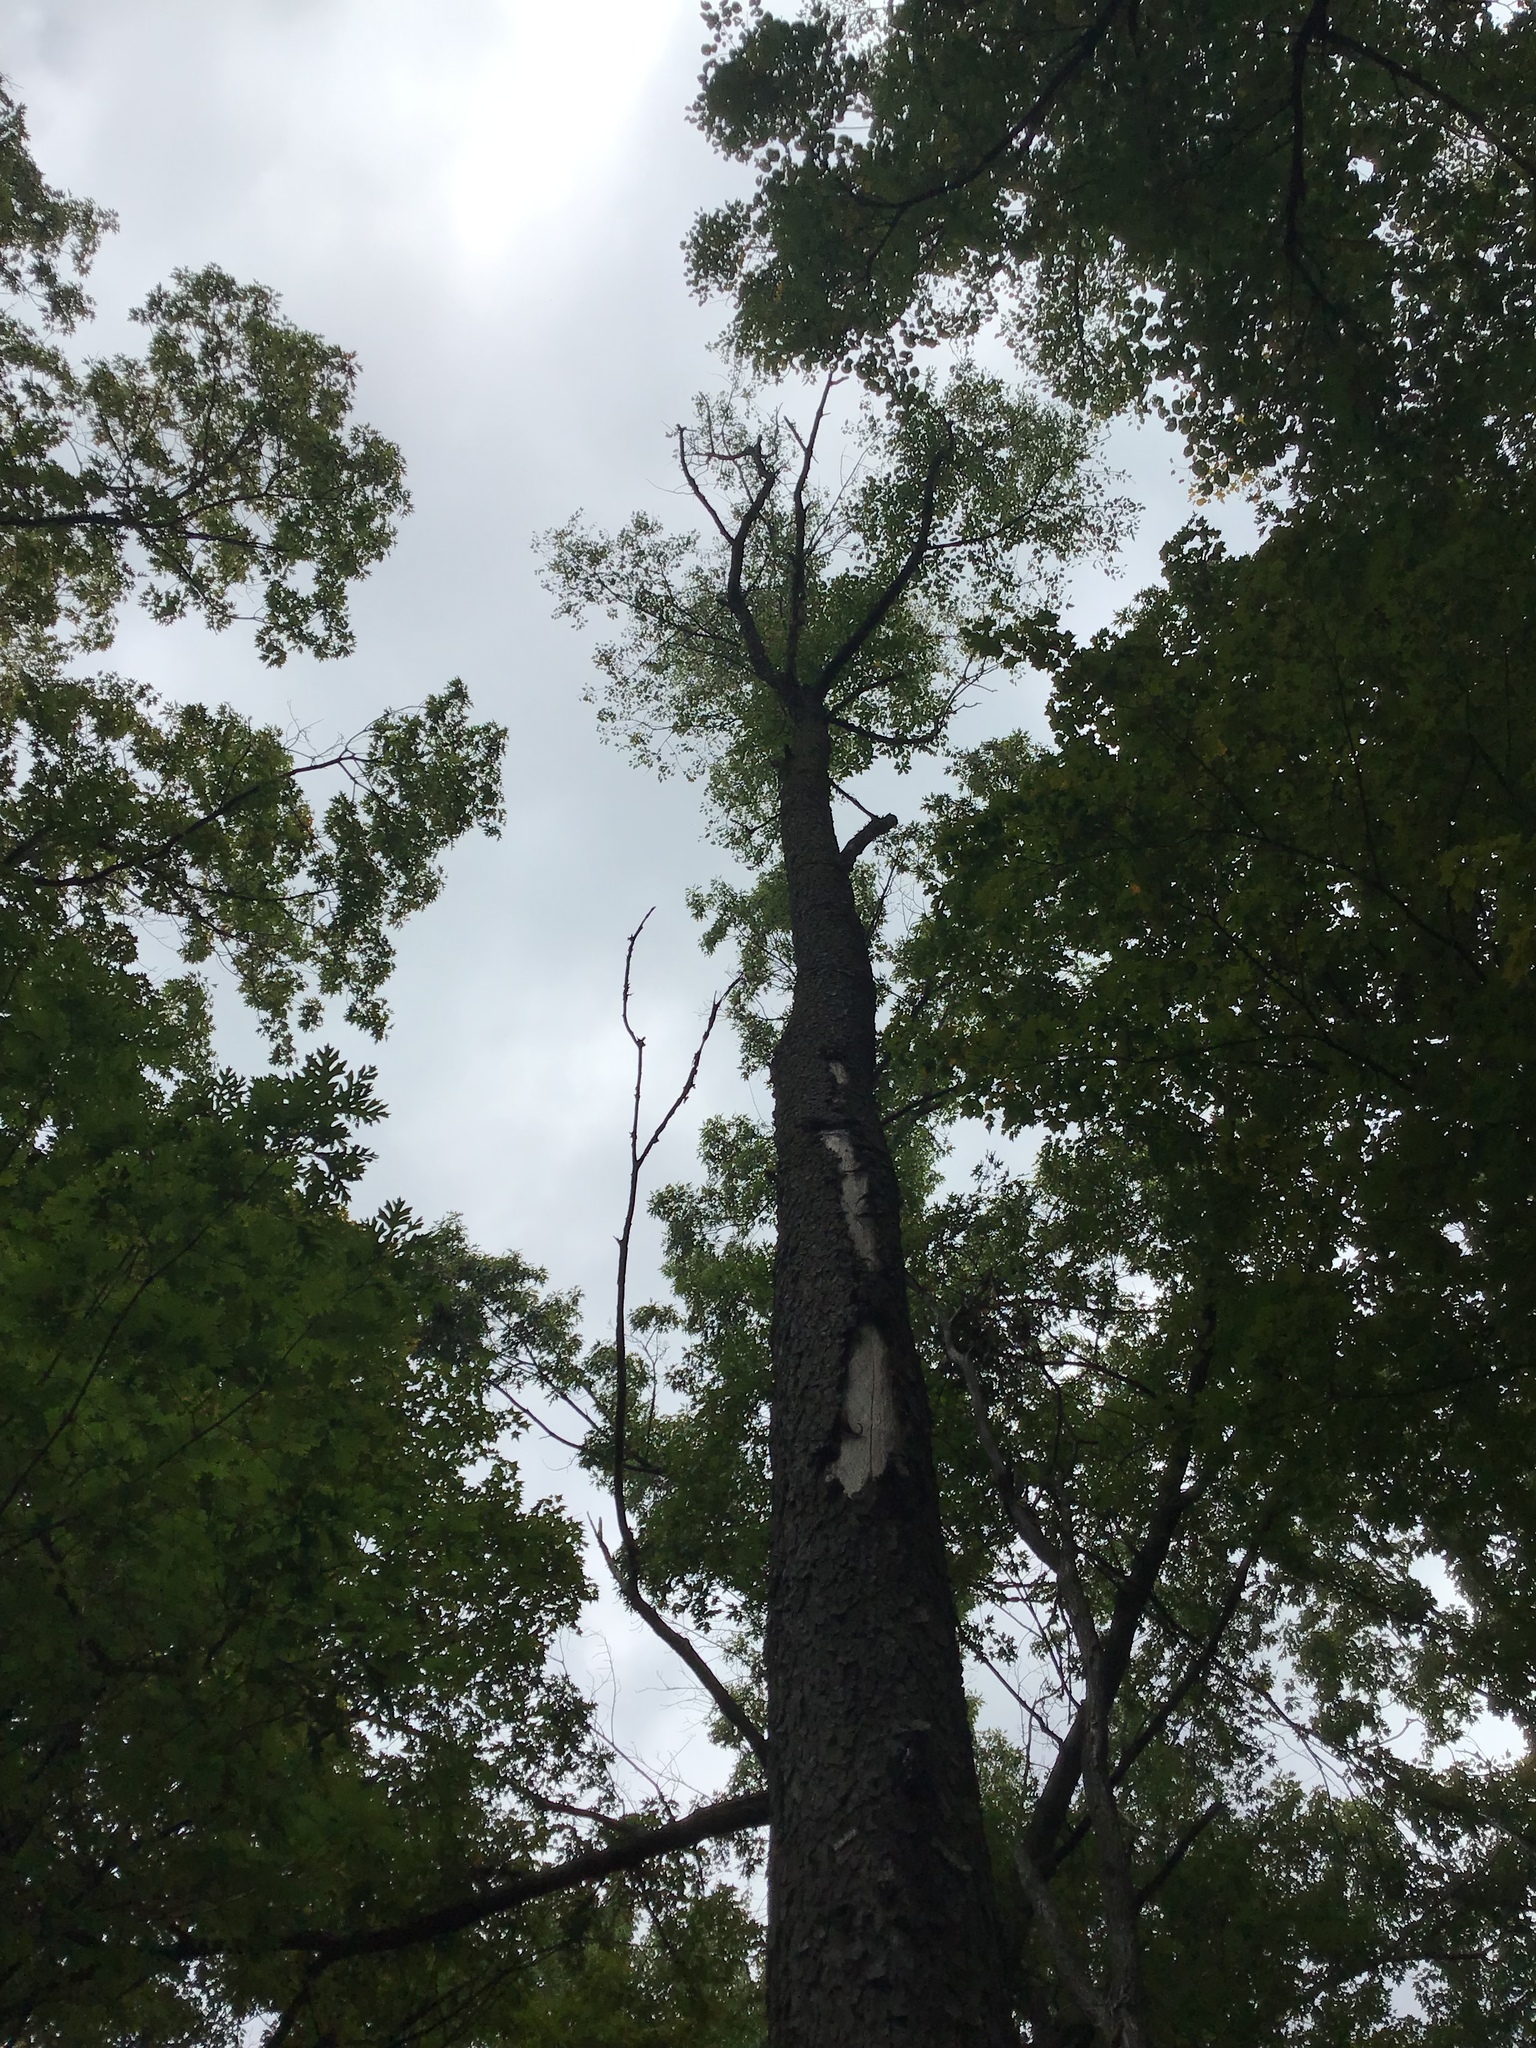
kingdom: Plantae
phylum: Tracheophyta
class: Magnoliopsida
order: Rosales
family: Rosaceae
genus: Prunus
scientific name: Prunus serotina
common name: Black cherry
